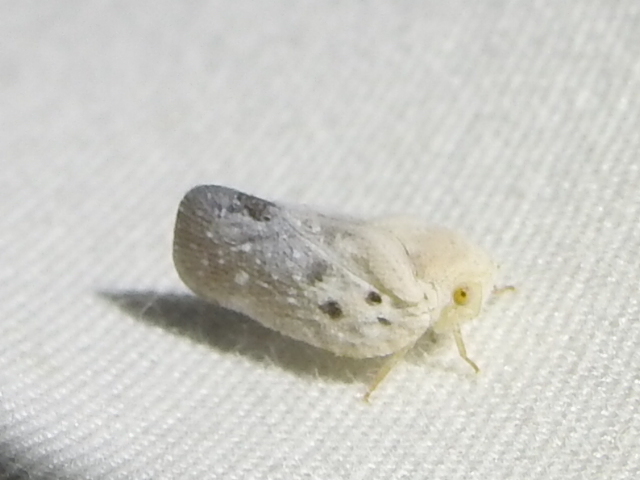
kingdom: Animalia
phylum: Arthropoda
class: Insecta
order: Hemiptera
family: Flatidae
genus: Metcalfa
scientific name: Metcalfa pruinosa
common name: Citrus flatid planthopper
